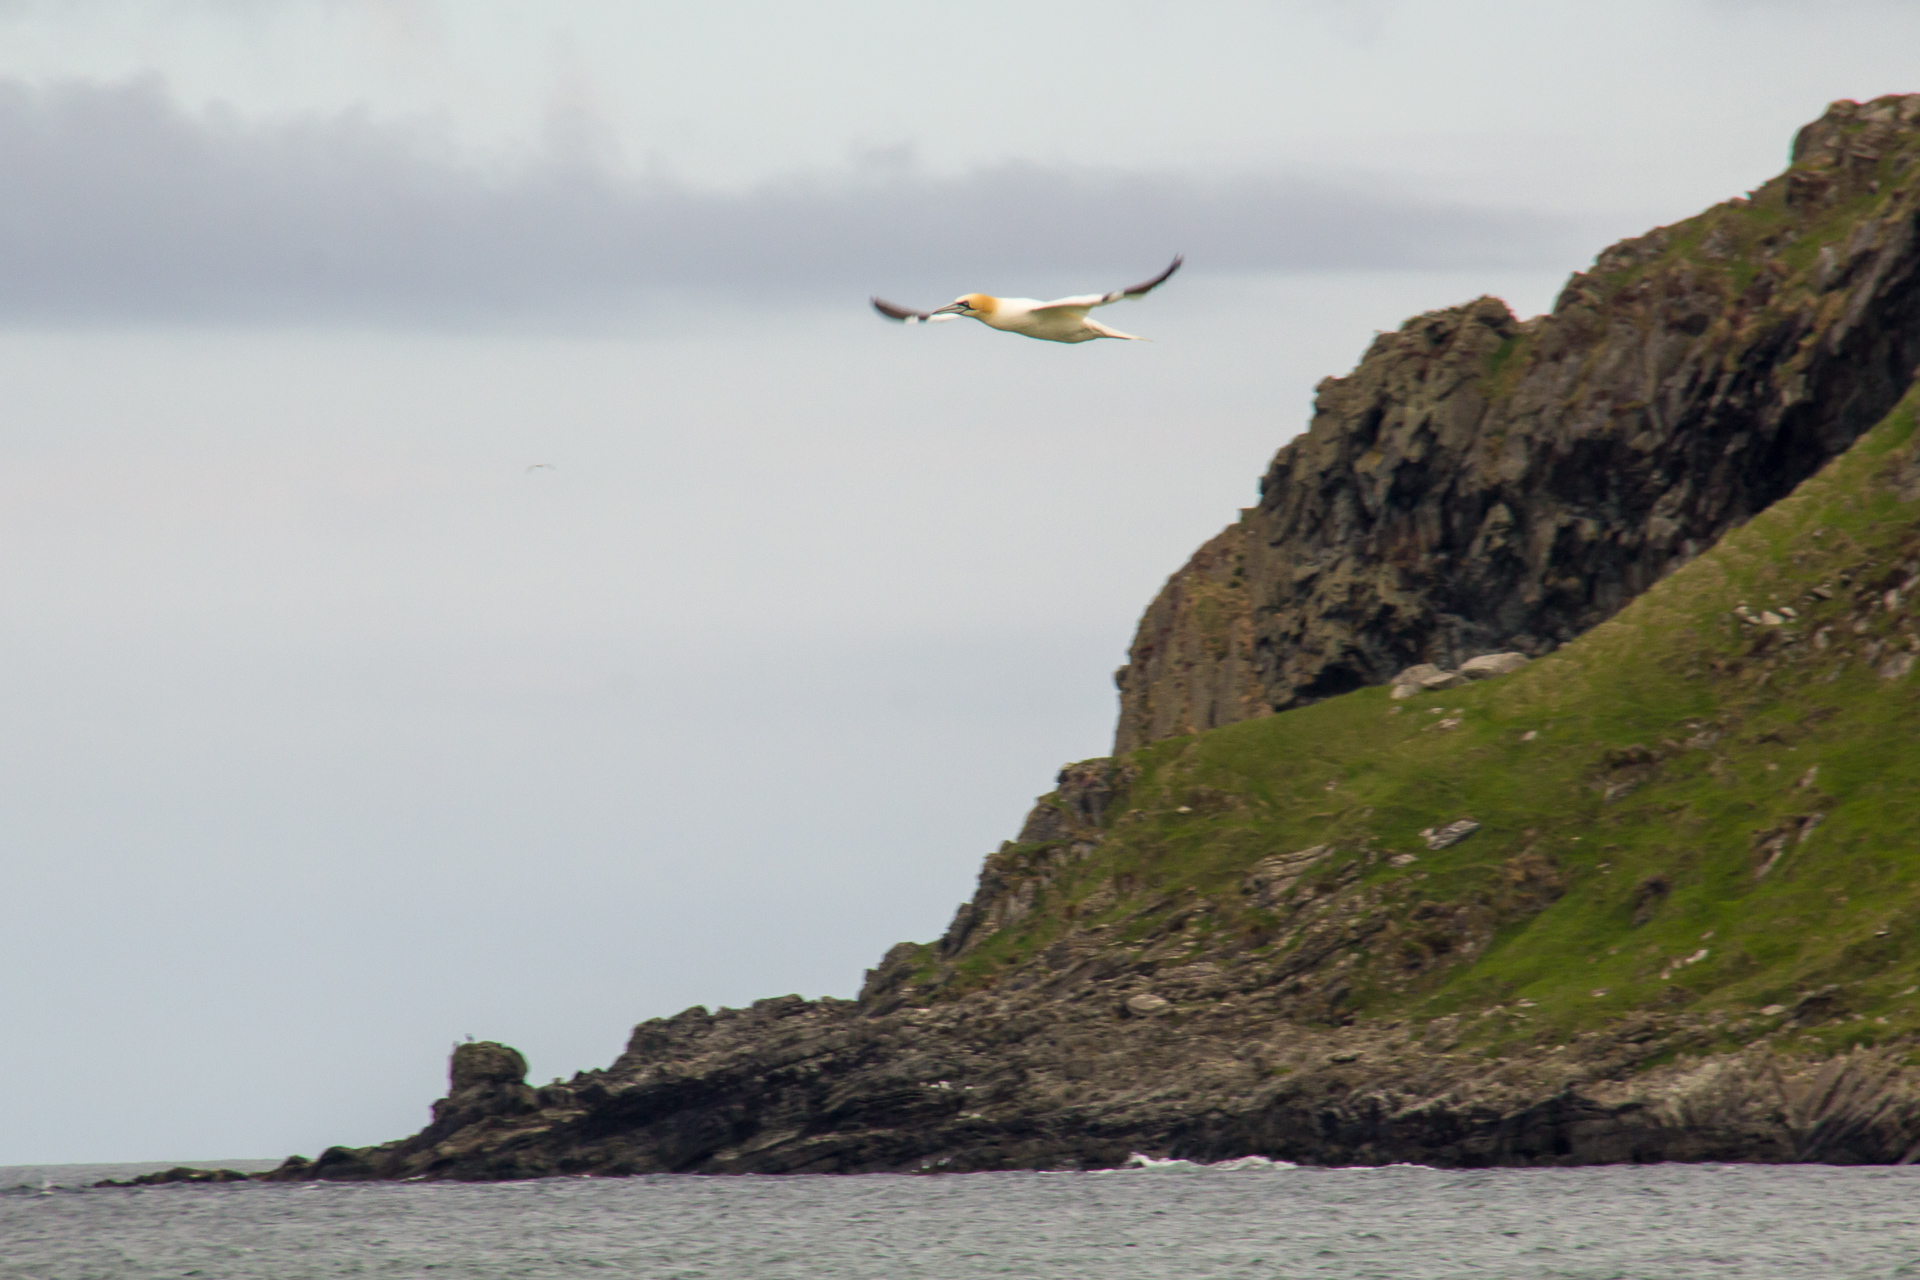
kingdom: Animalia
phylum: Chordata
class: Aves
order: Suliformes
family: Sulidae
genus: Morus
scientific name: Morus bassanus
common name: Northern gannet
